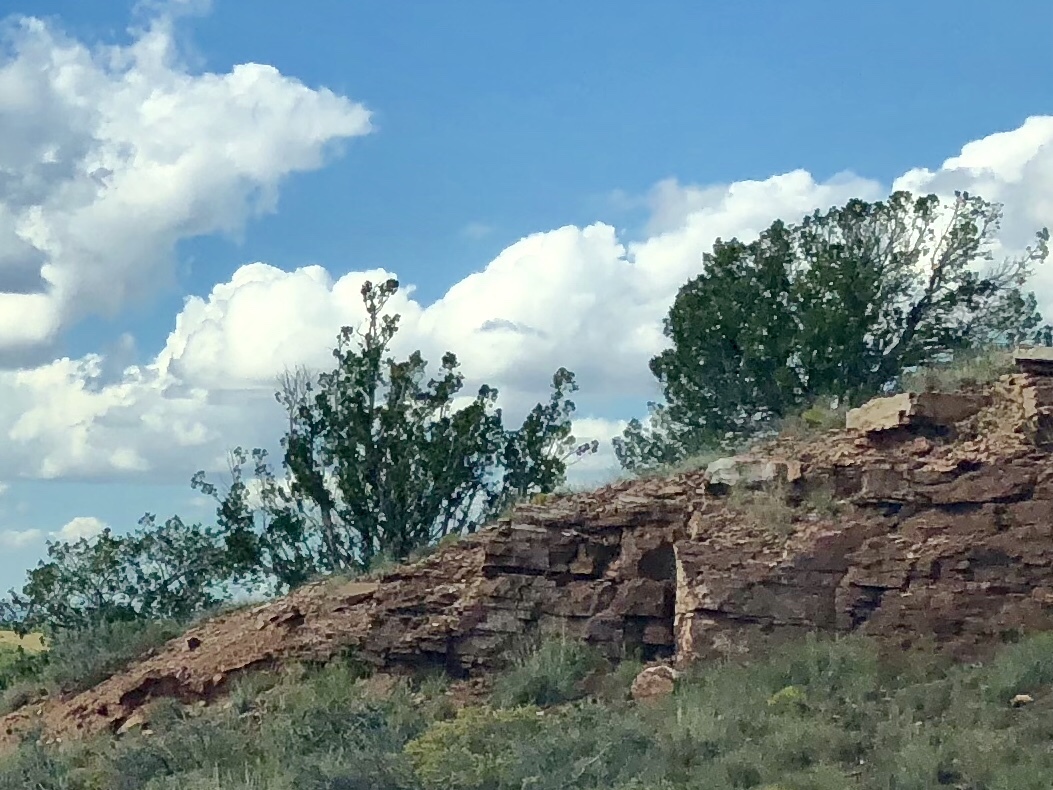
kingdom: Plantae
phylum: Tracheophyta
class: Magnoliopsida
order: Zygophyllales
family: Zygophyllaceae
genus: Larrea
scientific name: Larrea tridentata
